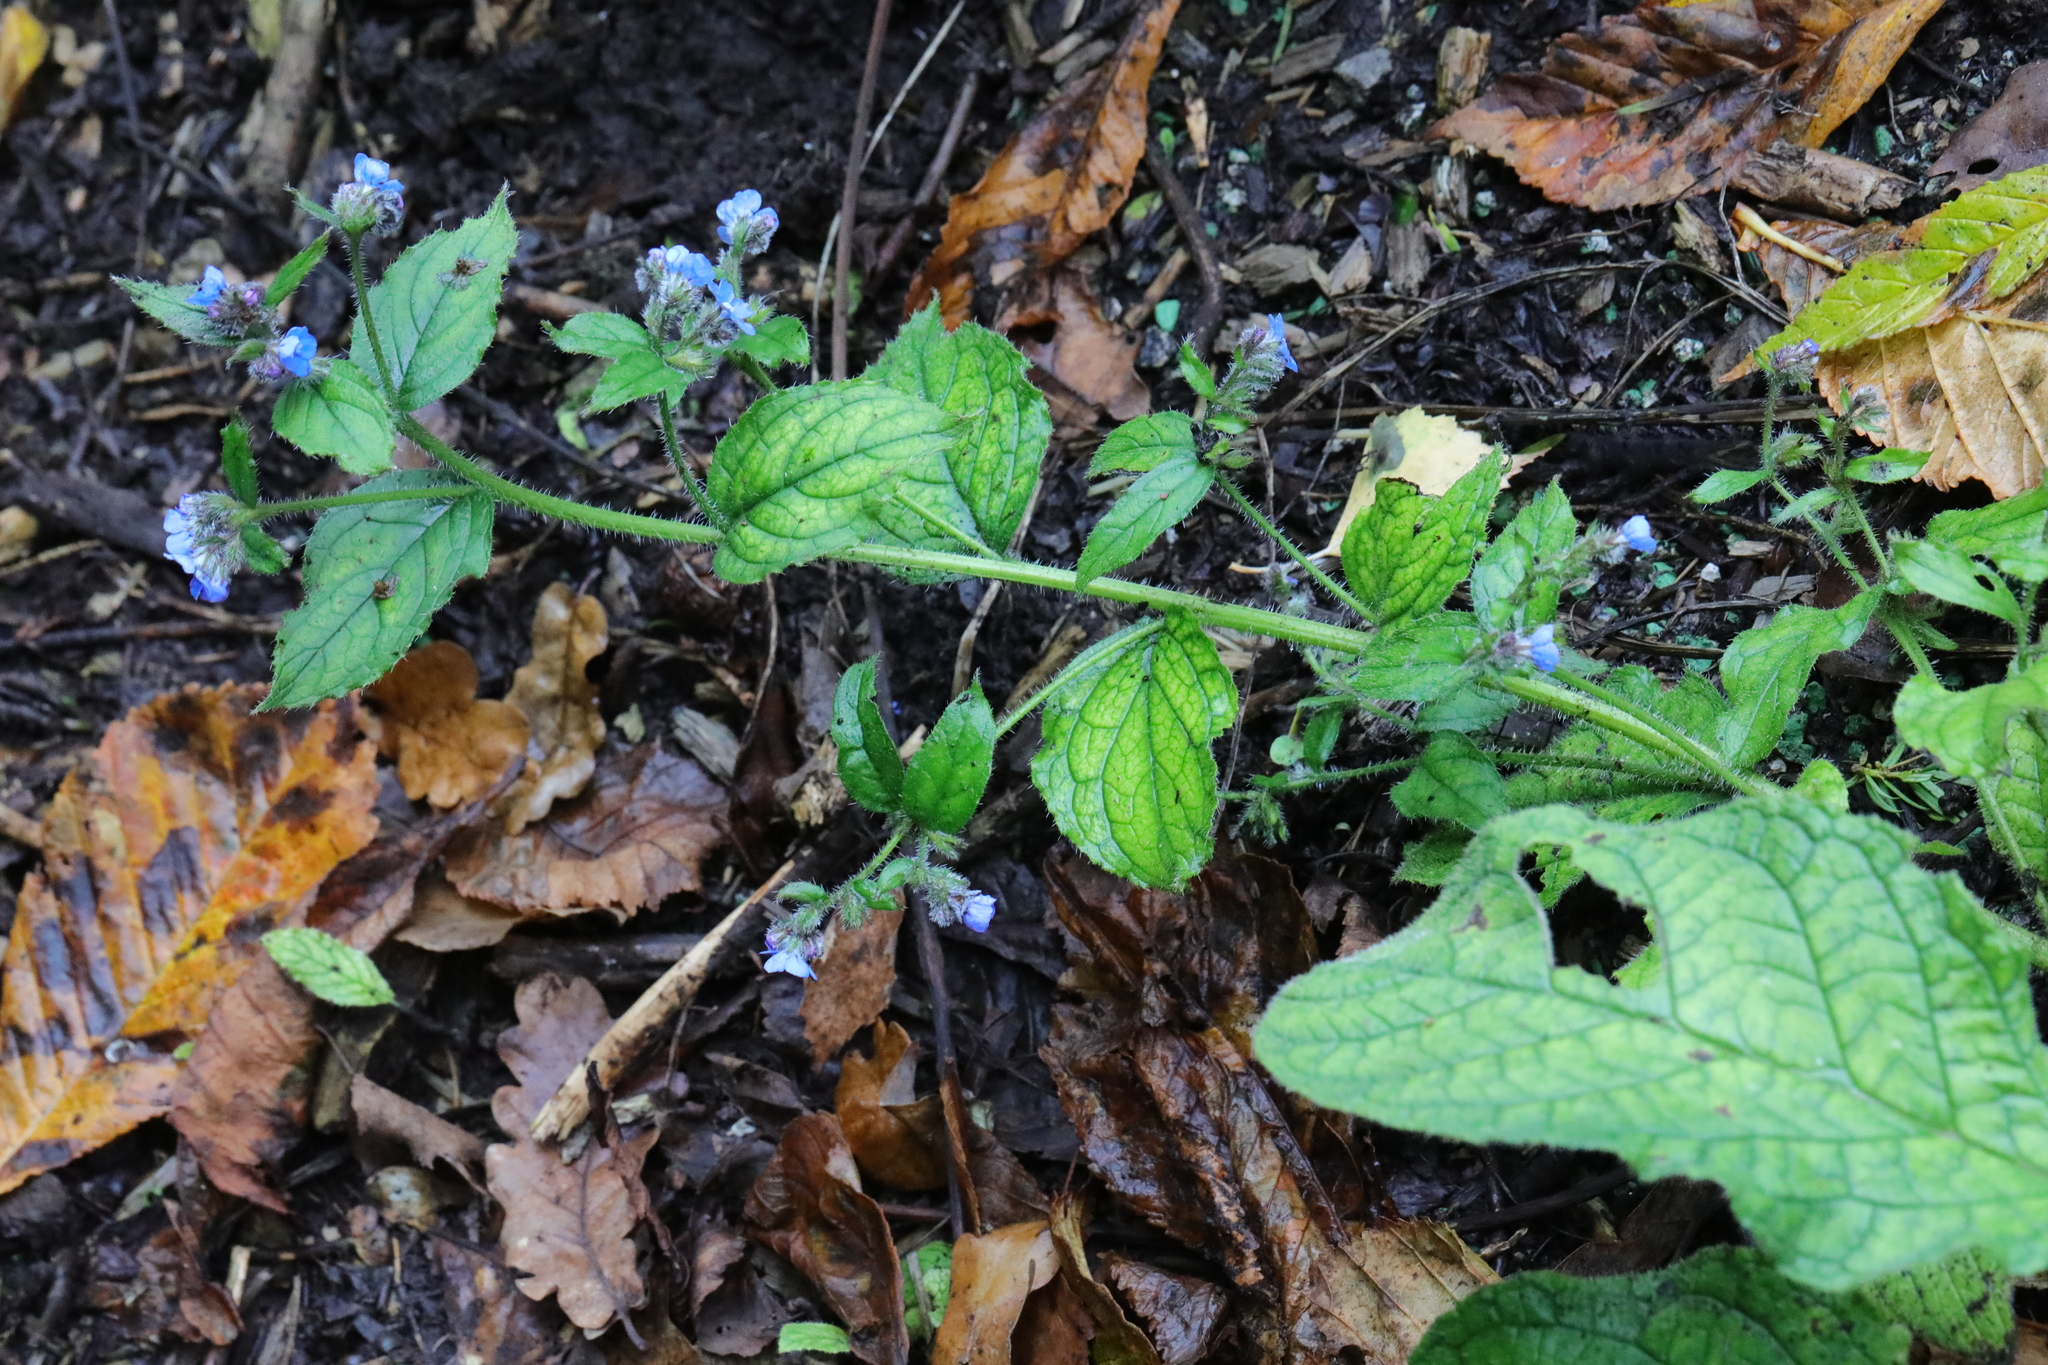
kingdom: Plantae
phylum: Tracheophyta
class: Magnoliopsida
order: Boraginales
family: Boraginaceae
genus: Pentaglottis
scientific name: Pentaglottis sempervirens
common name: Green alkanet
